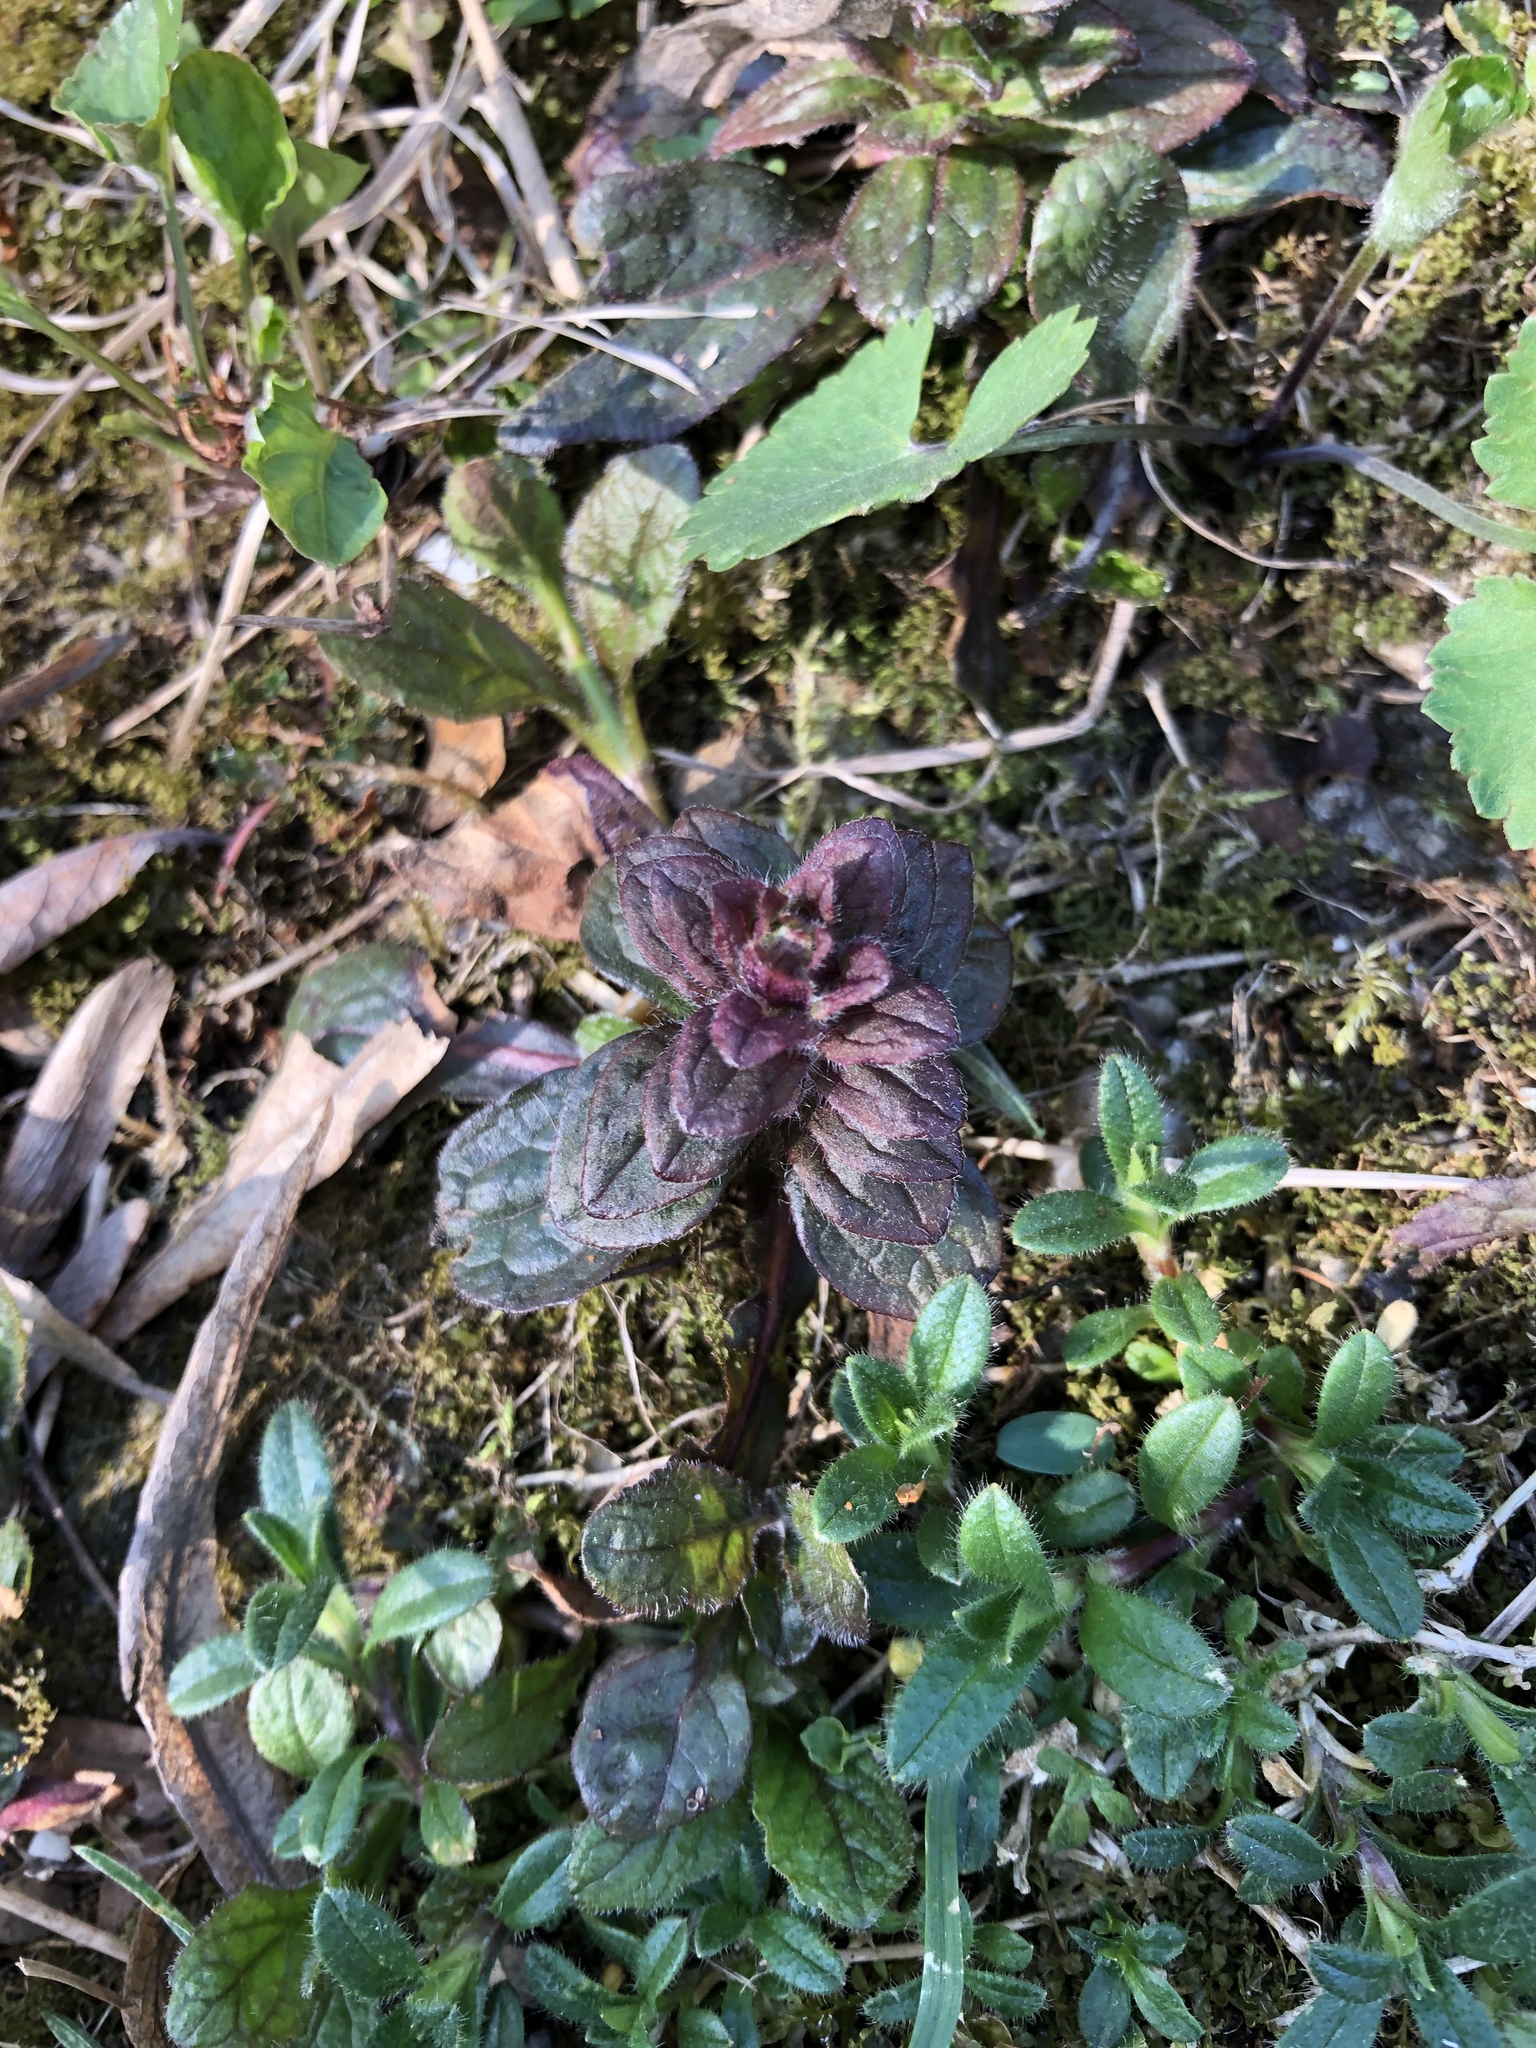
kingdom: Plantae
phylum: Tracheophyta
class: Magnoliopsida
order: Lamiales
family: Lamiaceae
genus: Ajuga
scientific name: Ajuga reptans
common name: Bugle
